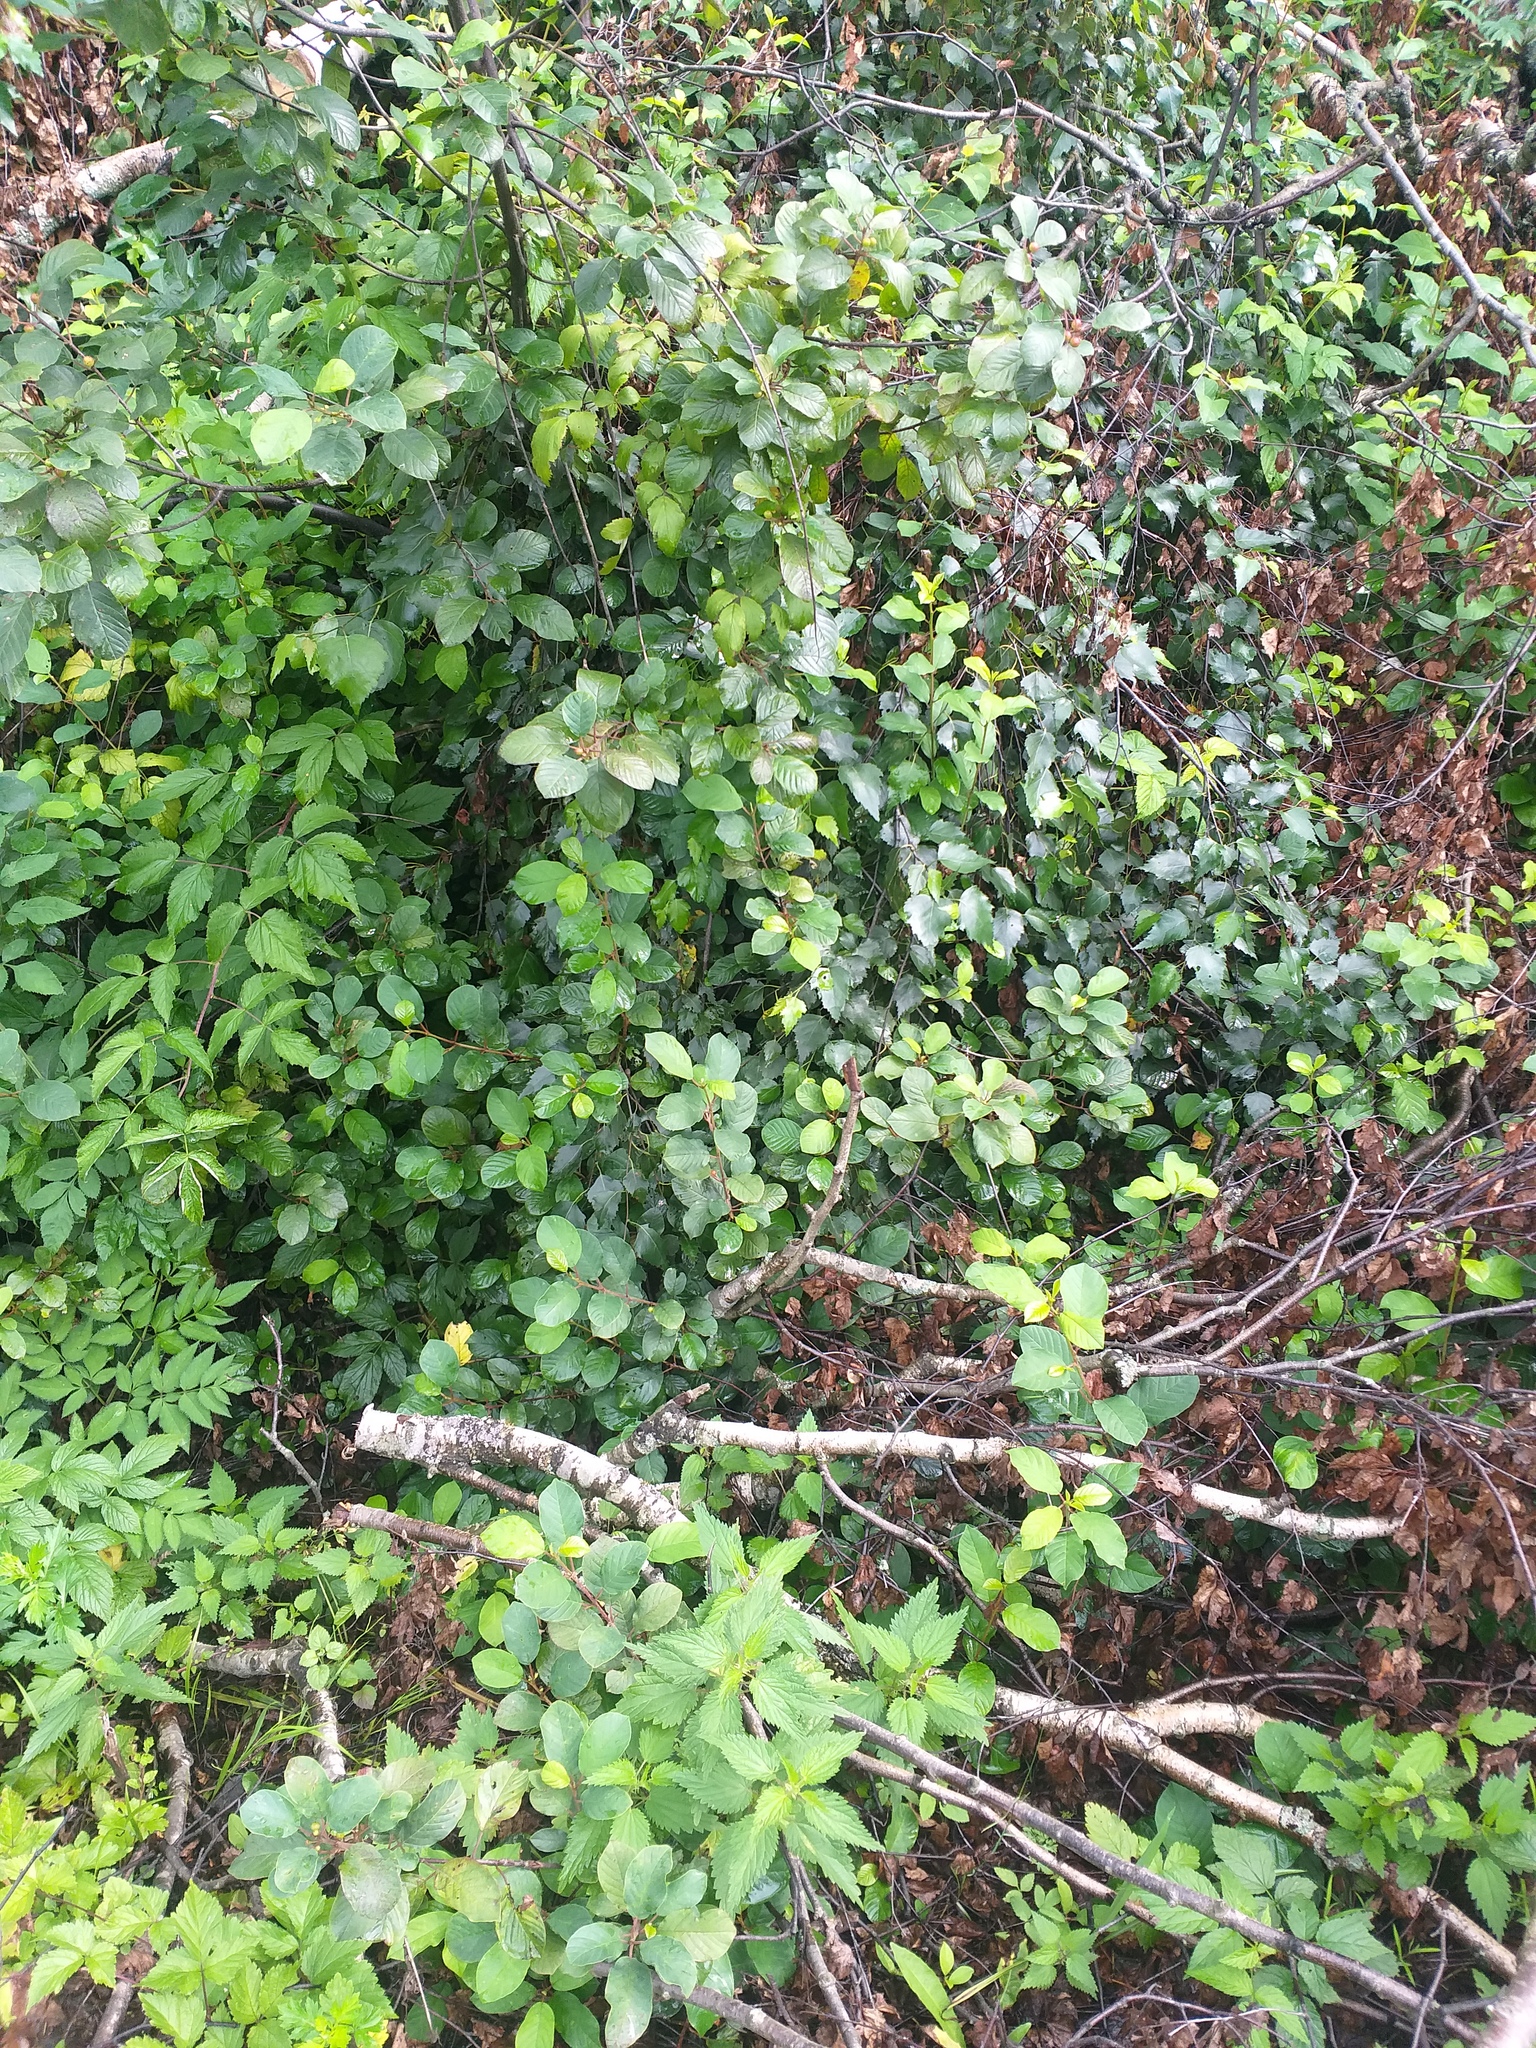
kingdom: Plantae
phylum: Tracheophyta
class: Magnoliopsida
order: Rosales
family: Rhamnaceae
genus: Frangula
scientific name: Frangula alnus
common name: Alder buckthorn
